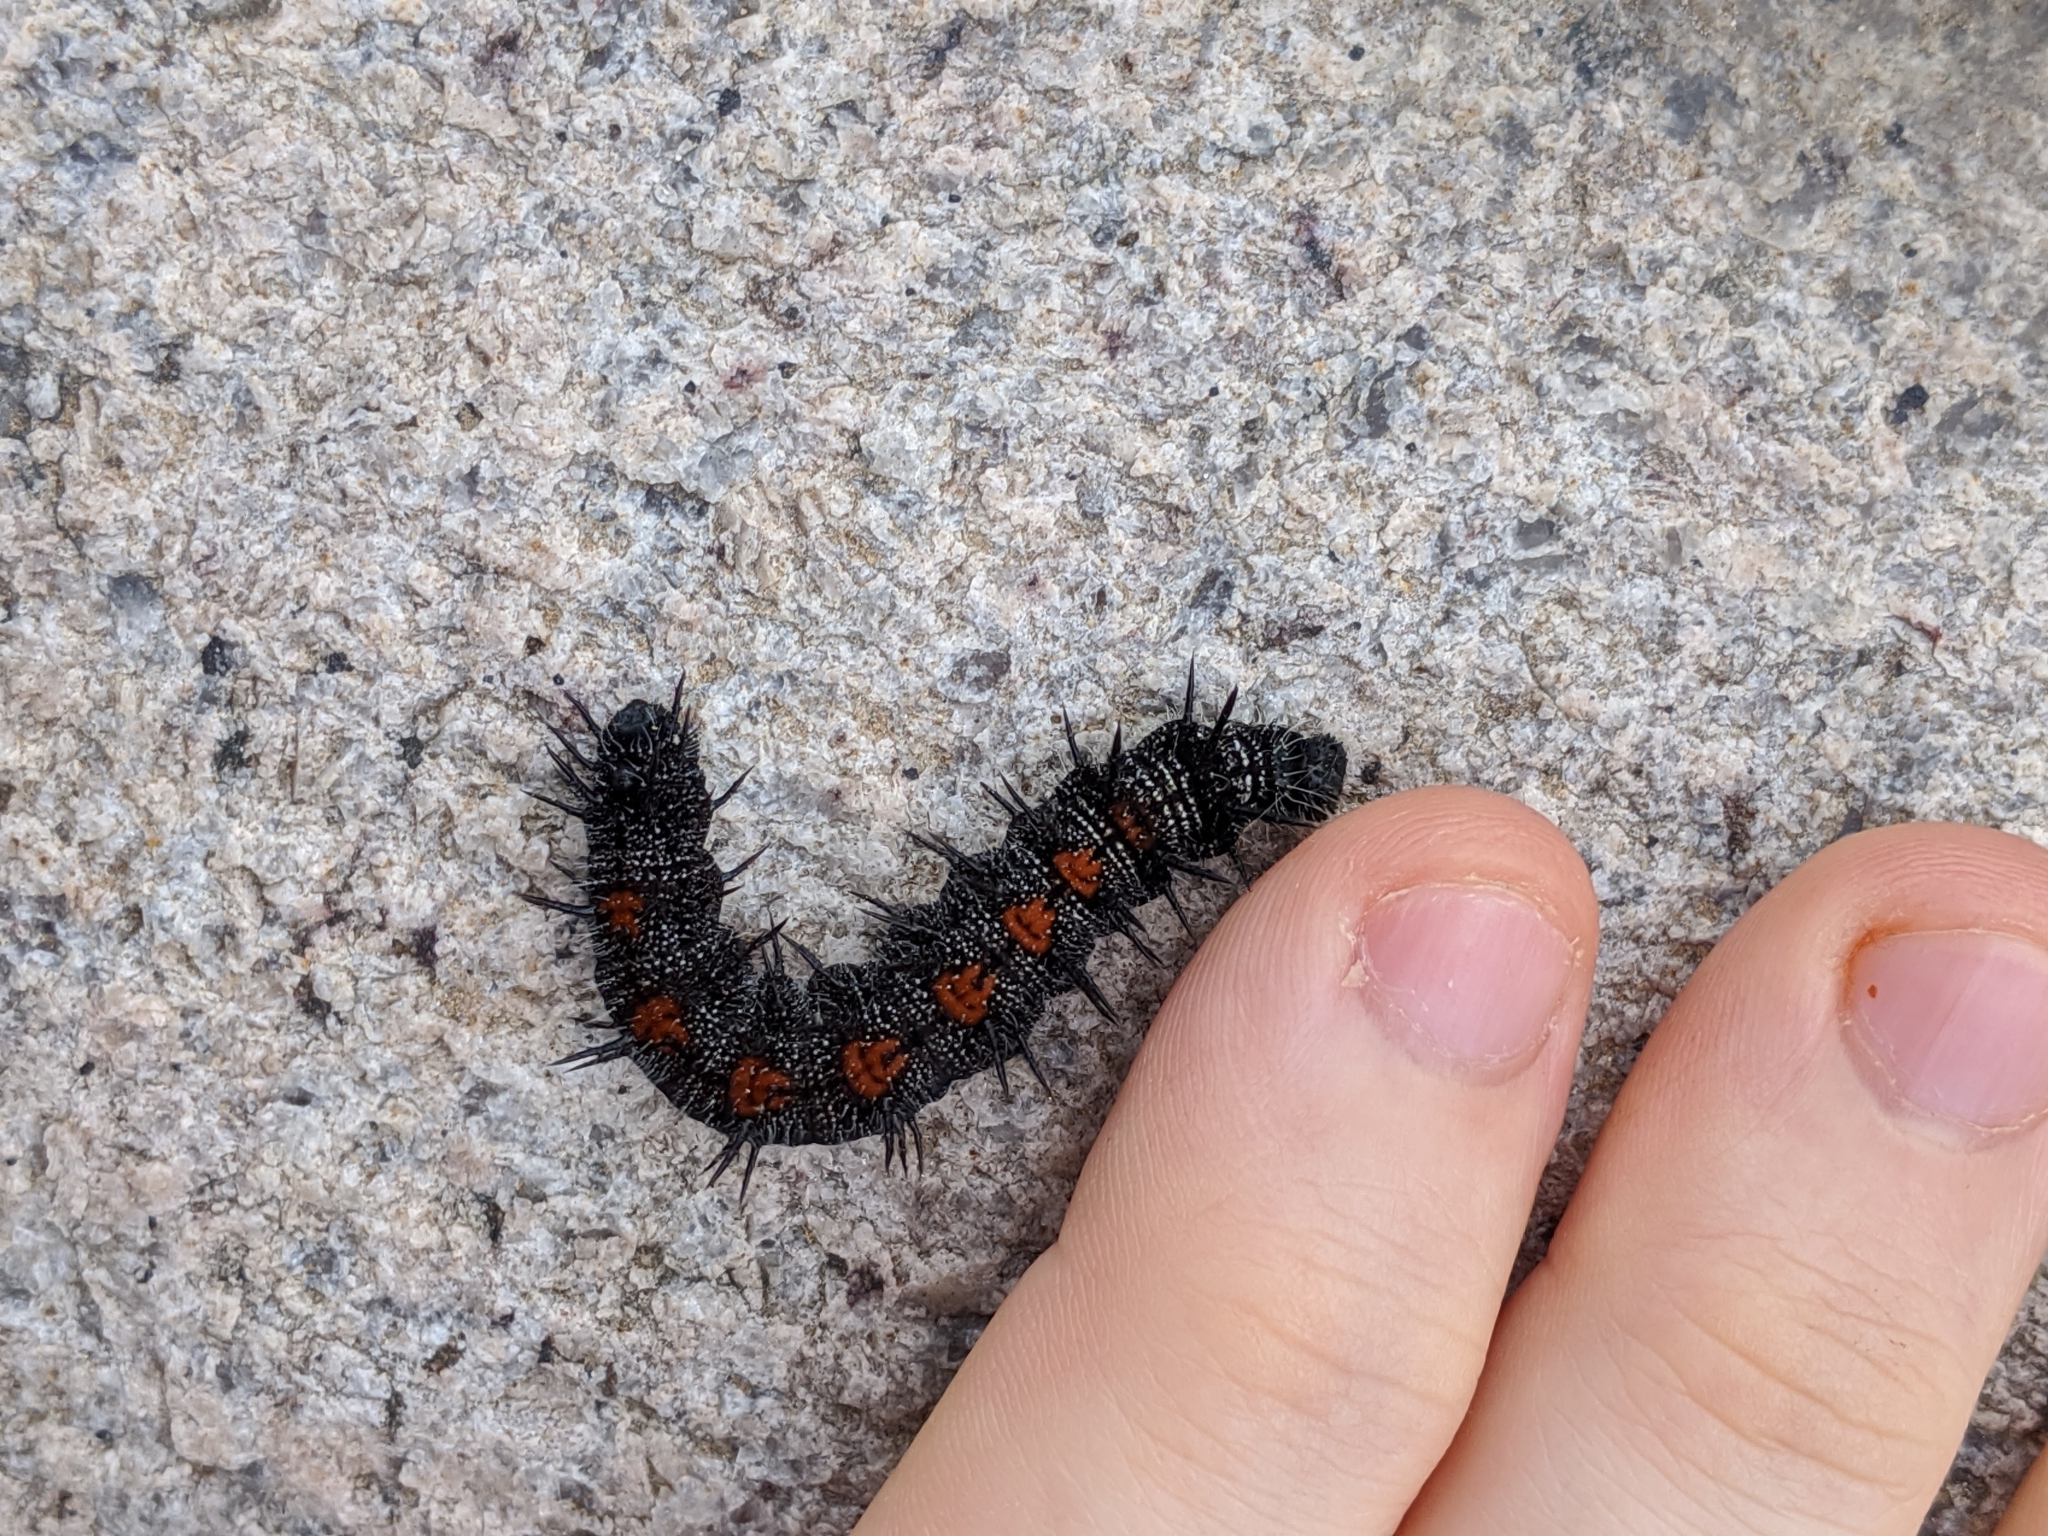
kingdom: Animalia
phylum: Arthropoda
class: Insecta
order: Lepidoptera
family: Nymphalidae
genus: Nymphalis
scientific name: Nymphalis antiopa
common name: Camberwell beauty
